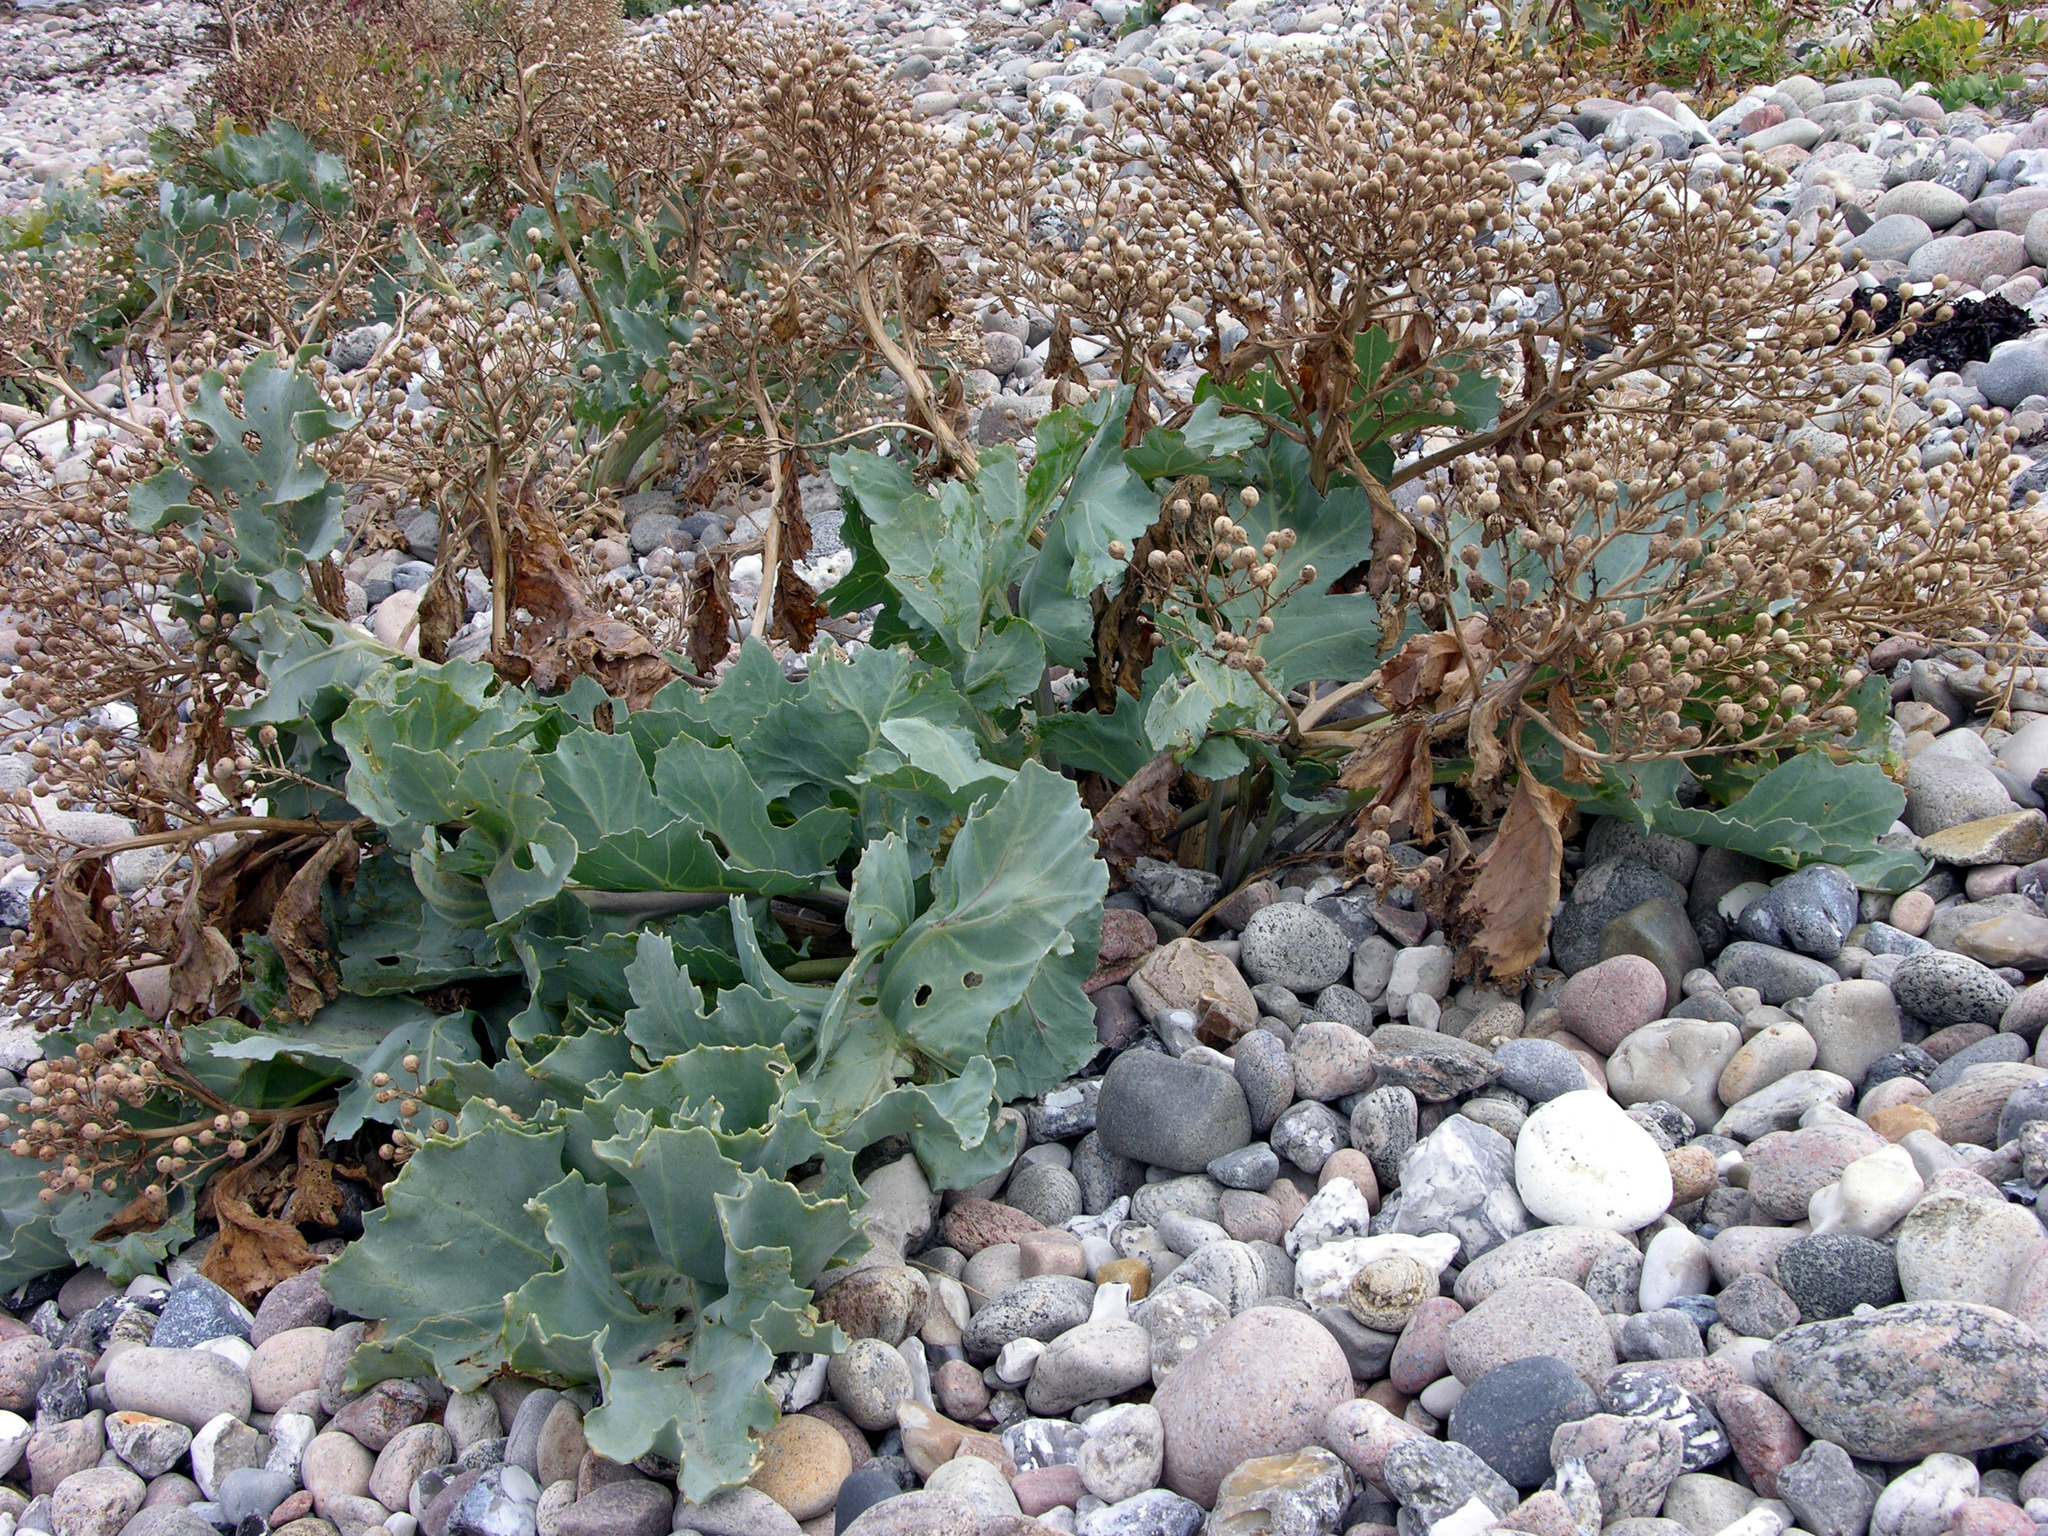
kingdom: Plantae
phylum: Tracheophyta
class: Magnoliopsida
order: Brassicales
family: Brassicaceae
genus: Crambe
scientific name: Crambe maritima
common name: Sea-kale
